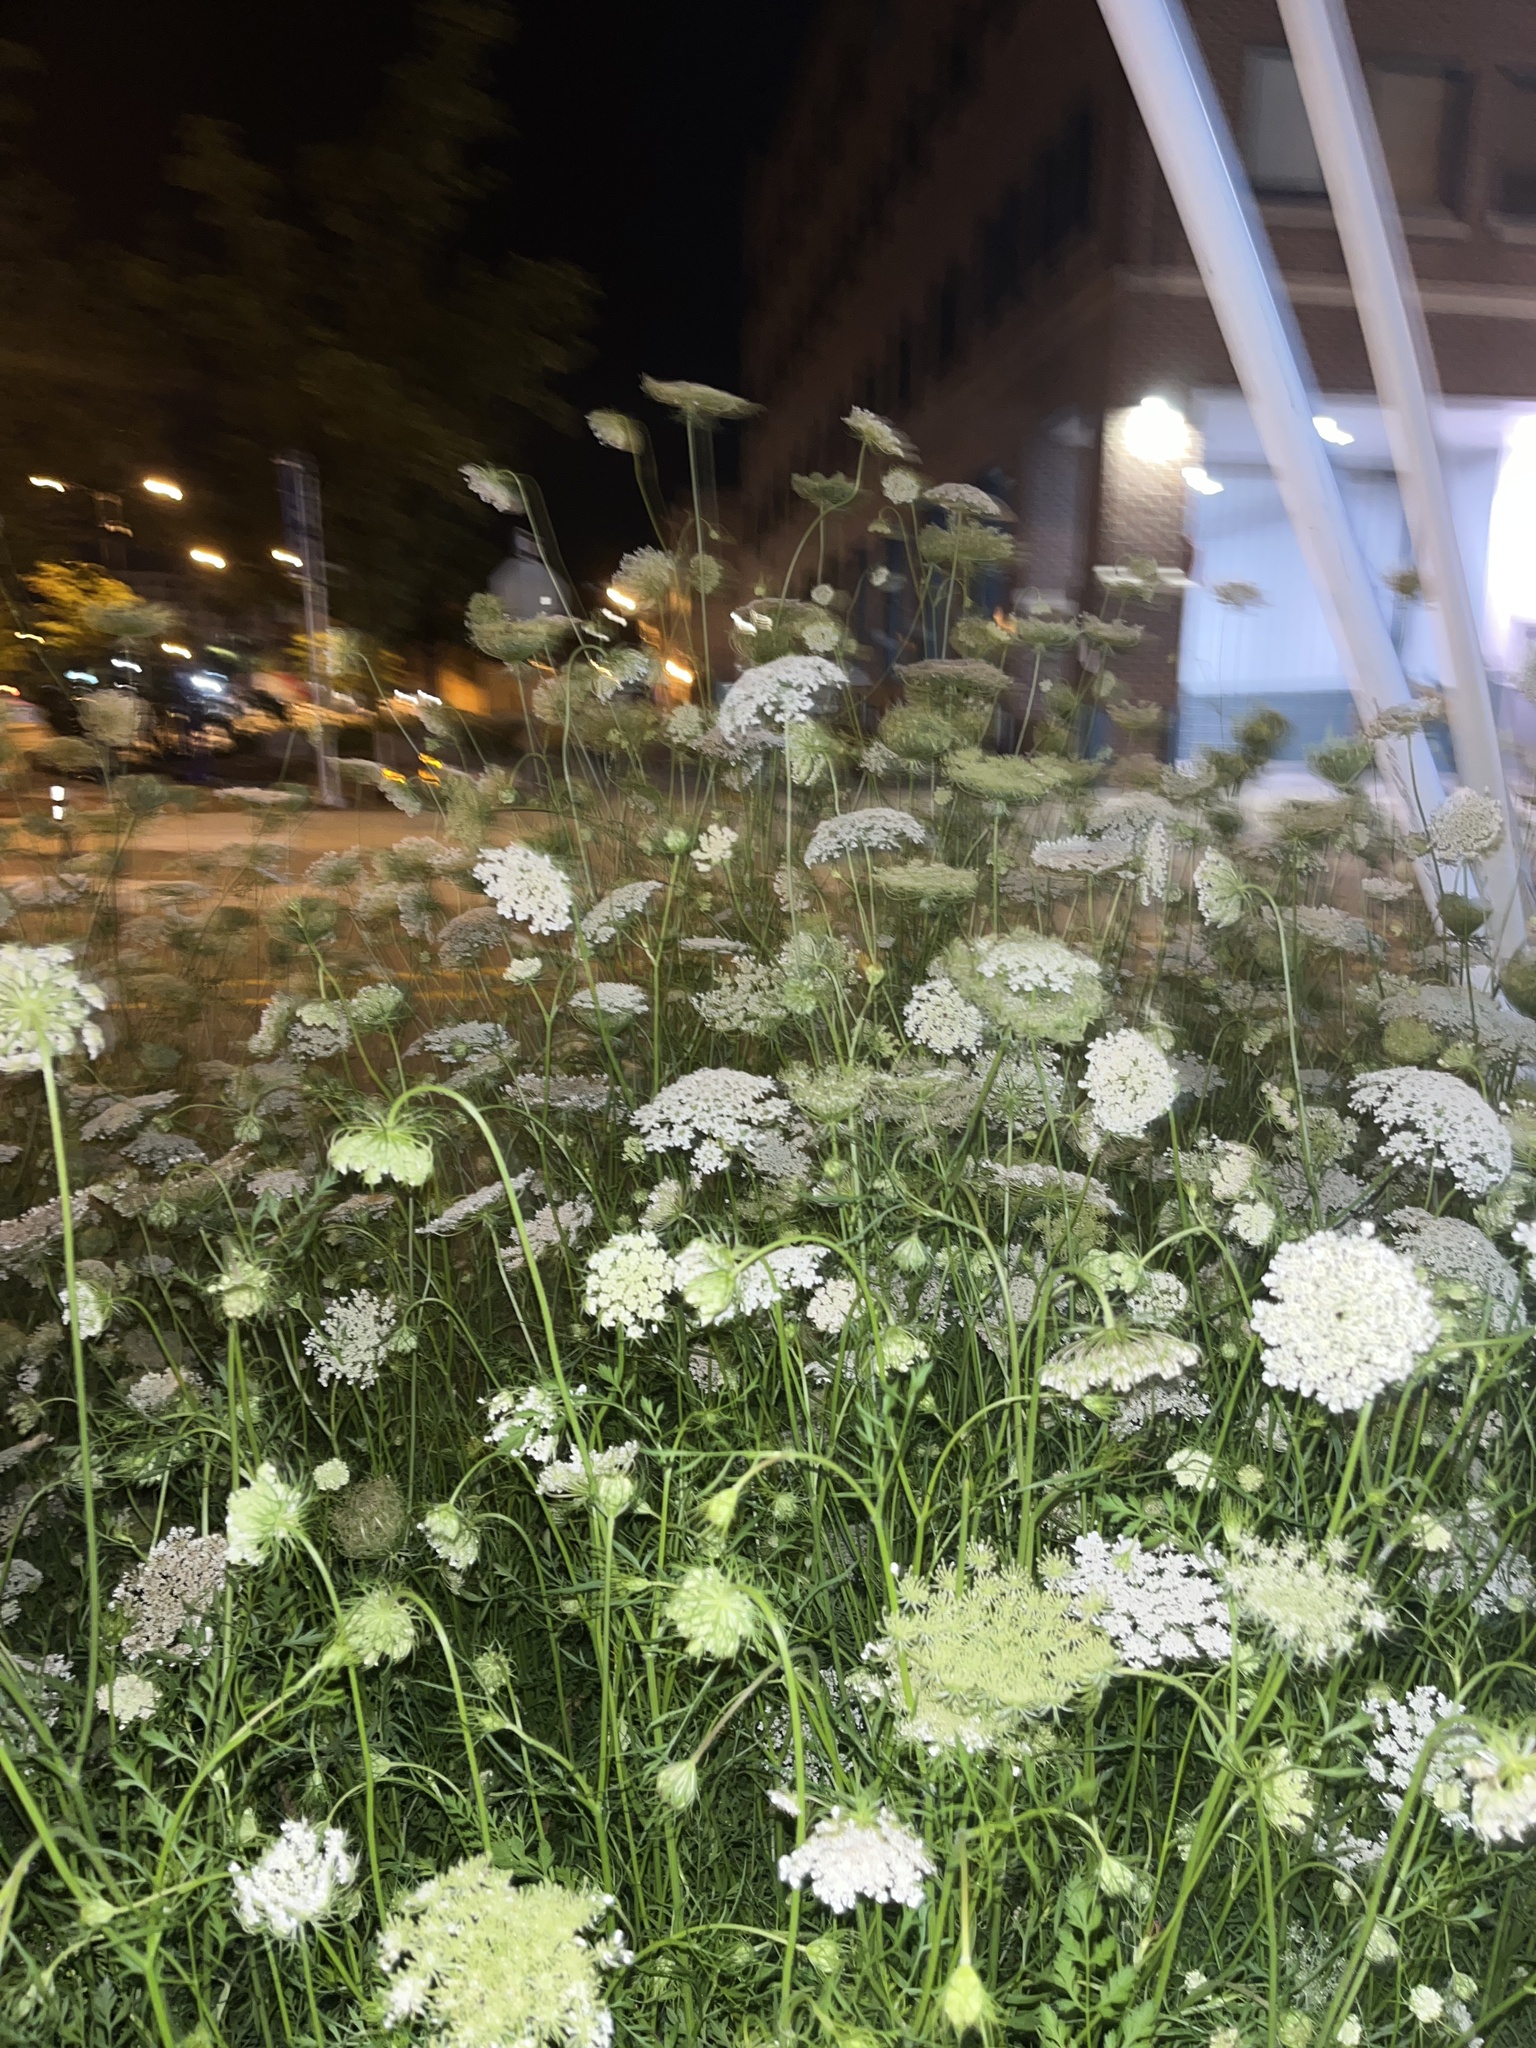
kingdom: Plantae
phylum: Tracheophyta
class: Magnoliopsida
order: Apiales
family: Apiaceae
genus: Daucus
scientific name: Daucus carota
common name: Wild carrot
